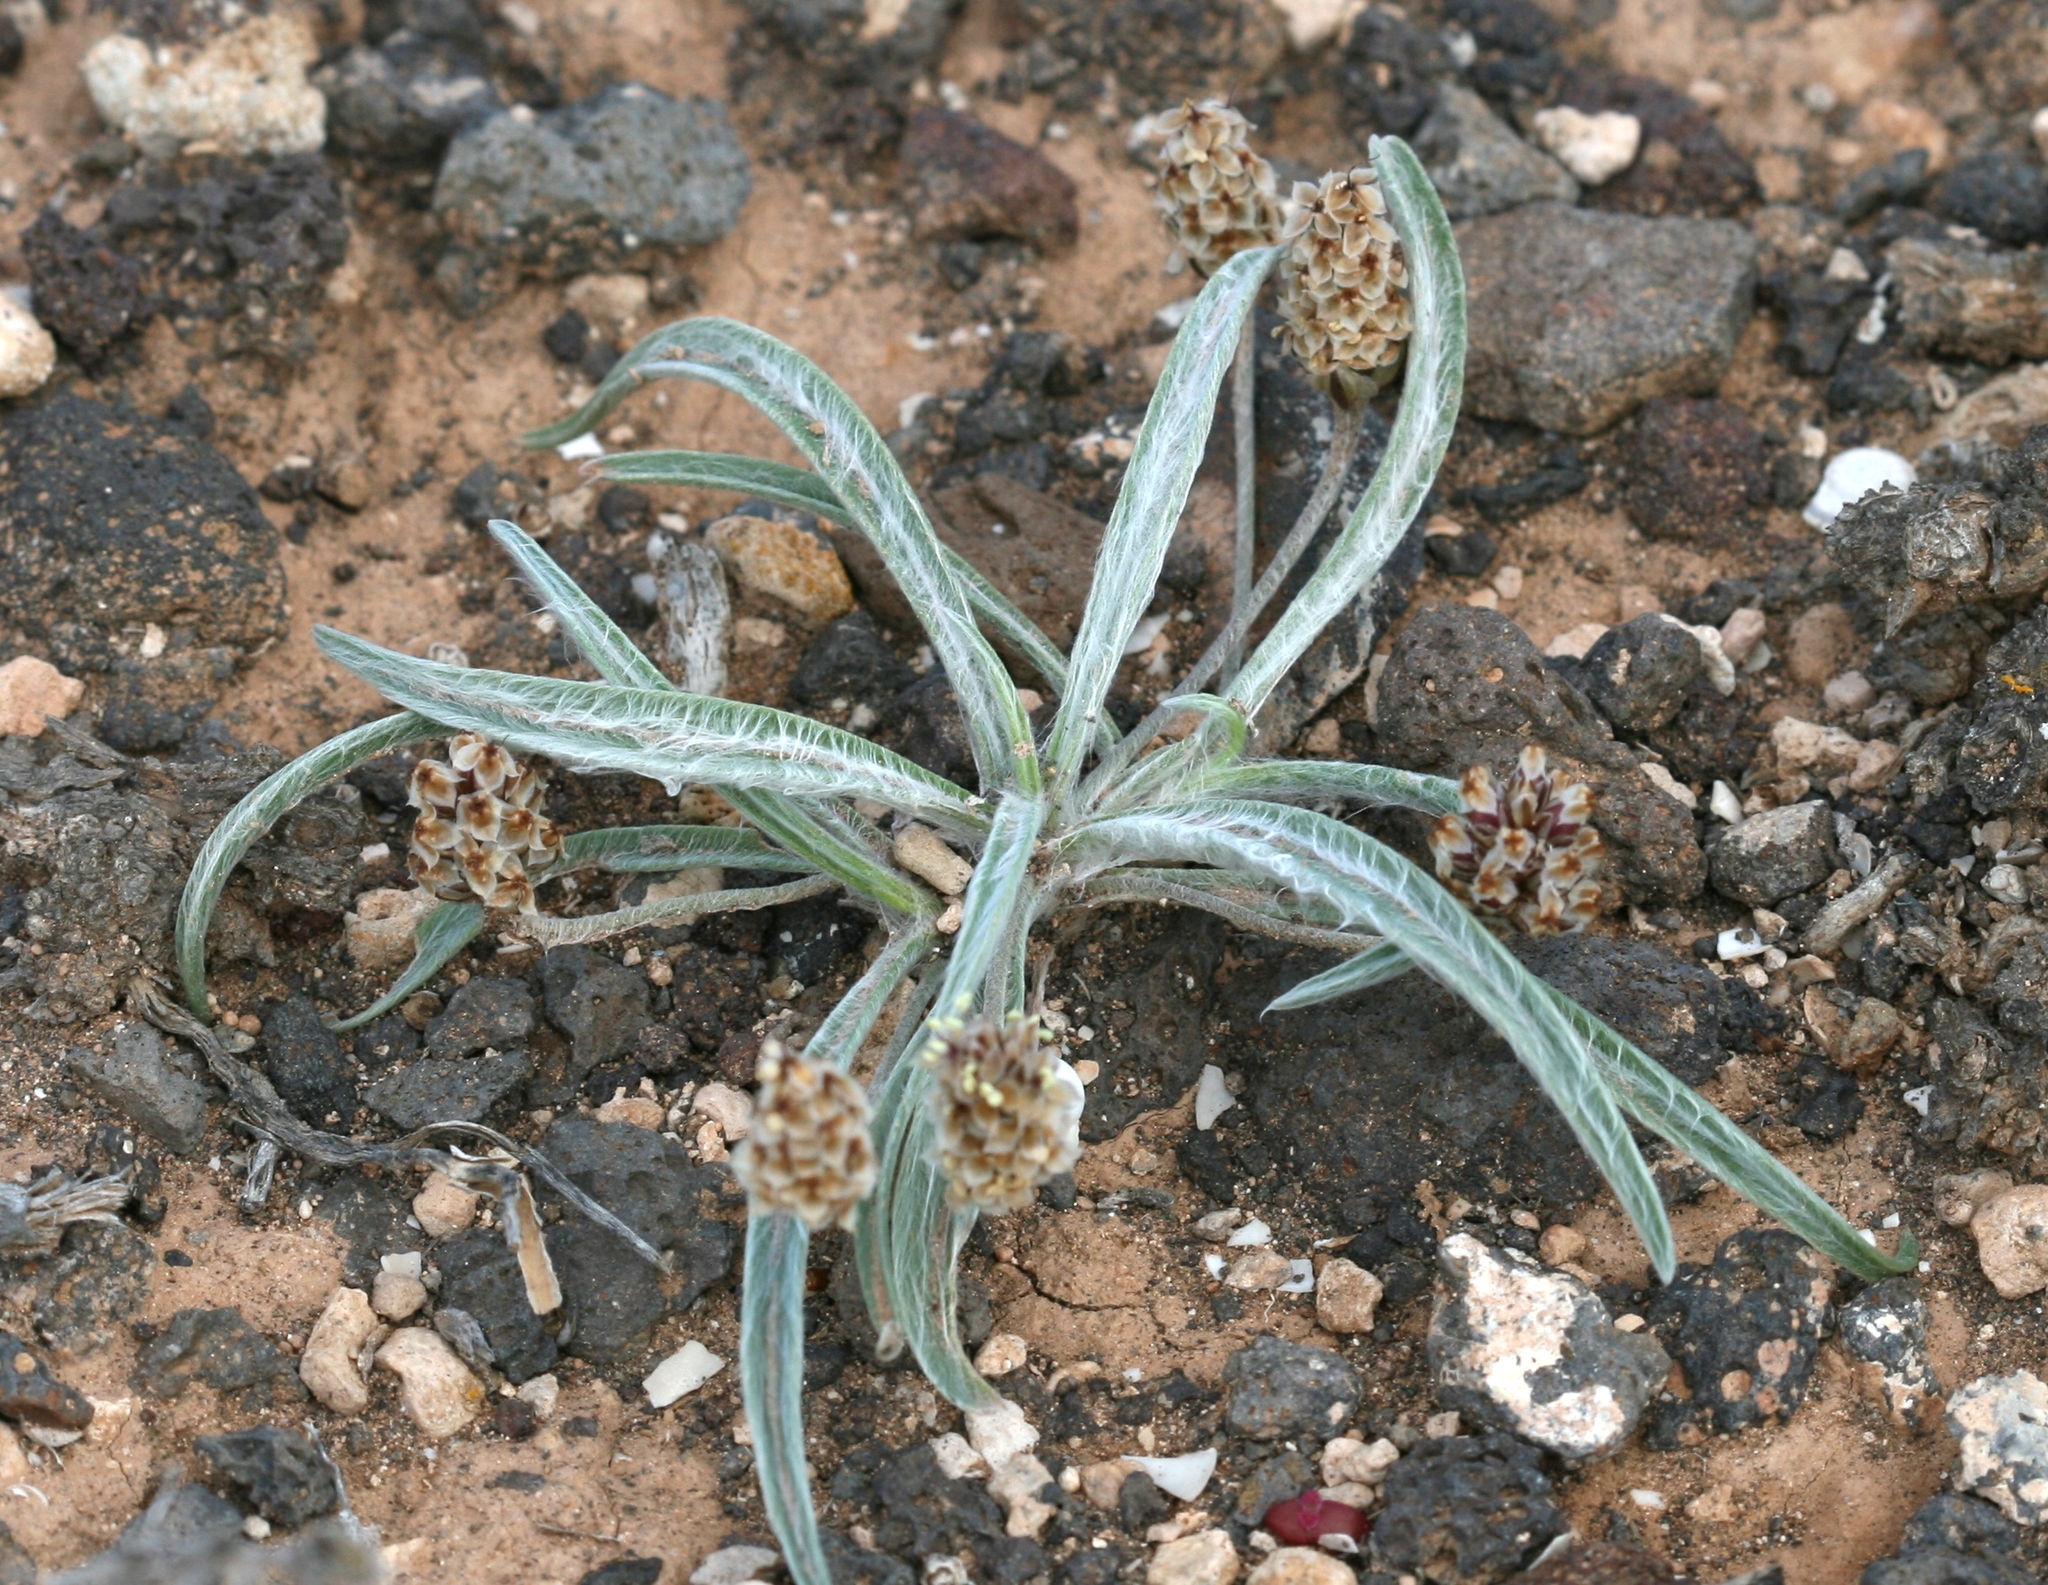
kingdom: Plantae
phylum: Tracheophyta
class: Magnoliopsida
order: Lamiales
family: Plantaginaceae
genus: Plantago
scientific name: Plantago ovata
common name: Blond plantain
